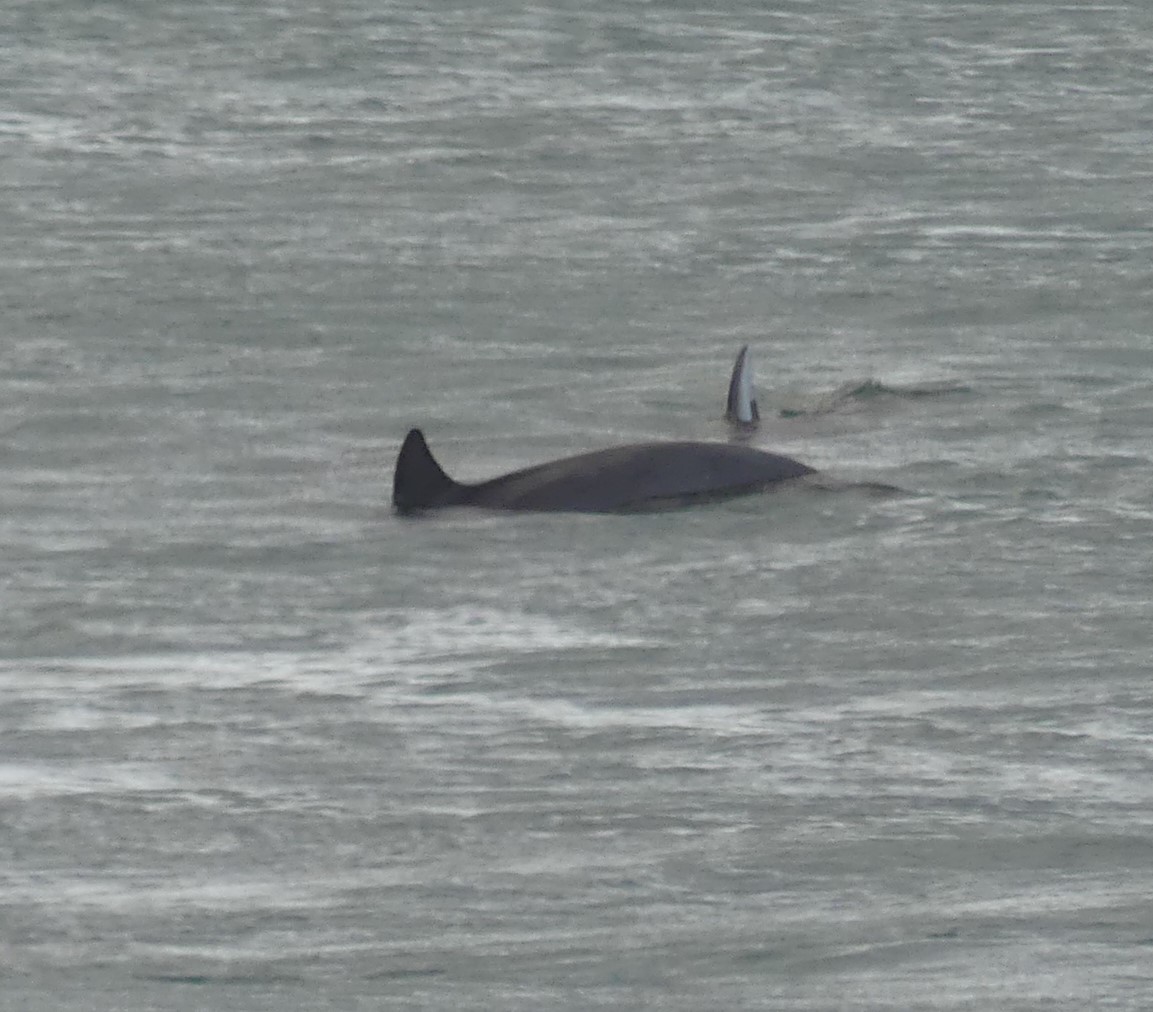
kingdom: Animalia
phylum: Chordata
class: Mammalia
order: Cetacea
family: Delphinidae
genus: Tursiops
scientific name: Tursiops truncatus
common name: Bottlenose dolphin
